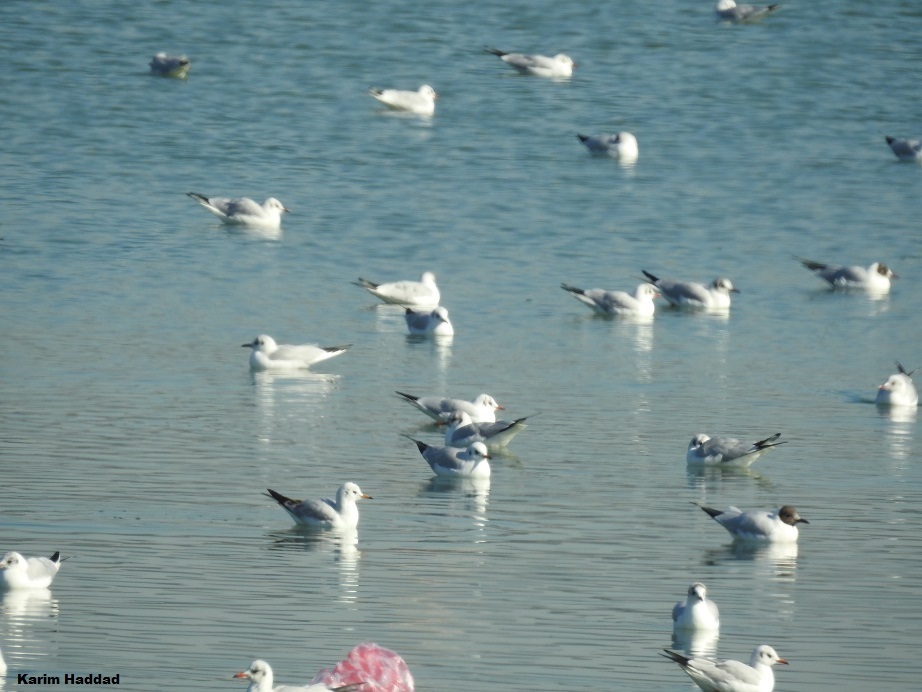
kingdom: Animalia
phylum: Chordata
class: Aves
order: Charadriiformes
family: Laridae
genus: Chroicocephalus
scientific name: Chroicocephalus ridibundus
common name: Black-headed gull
